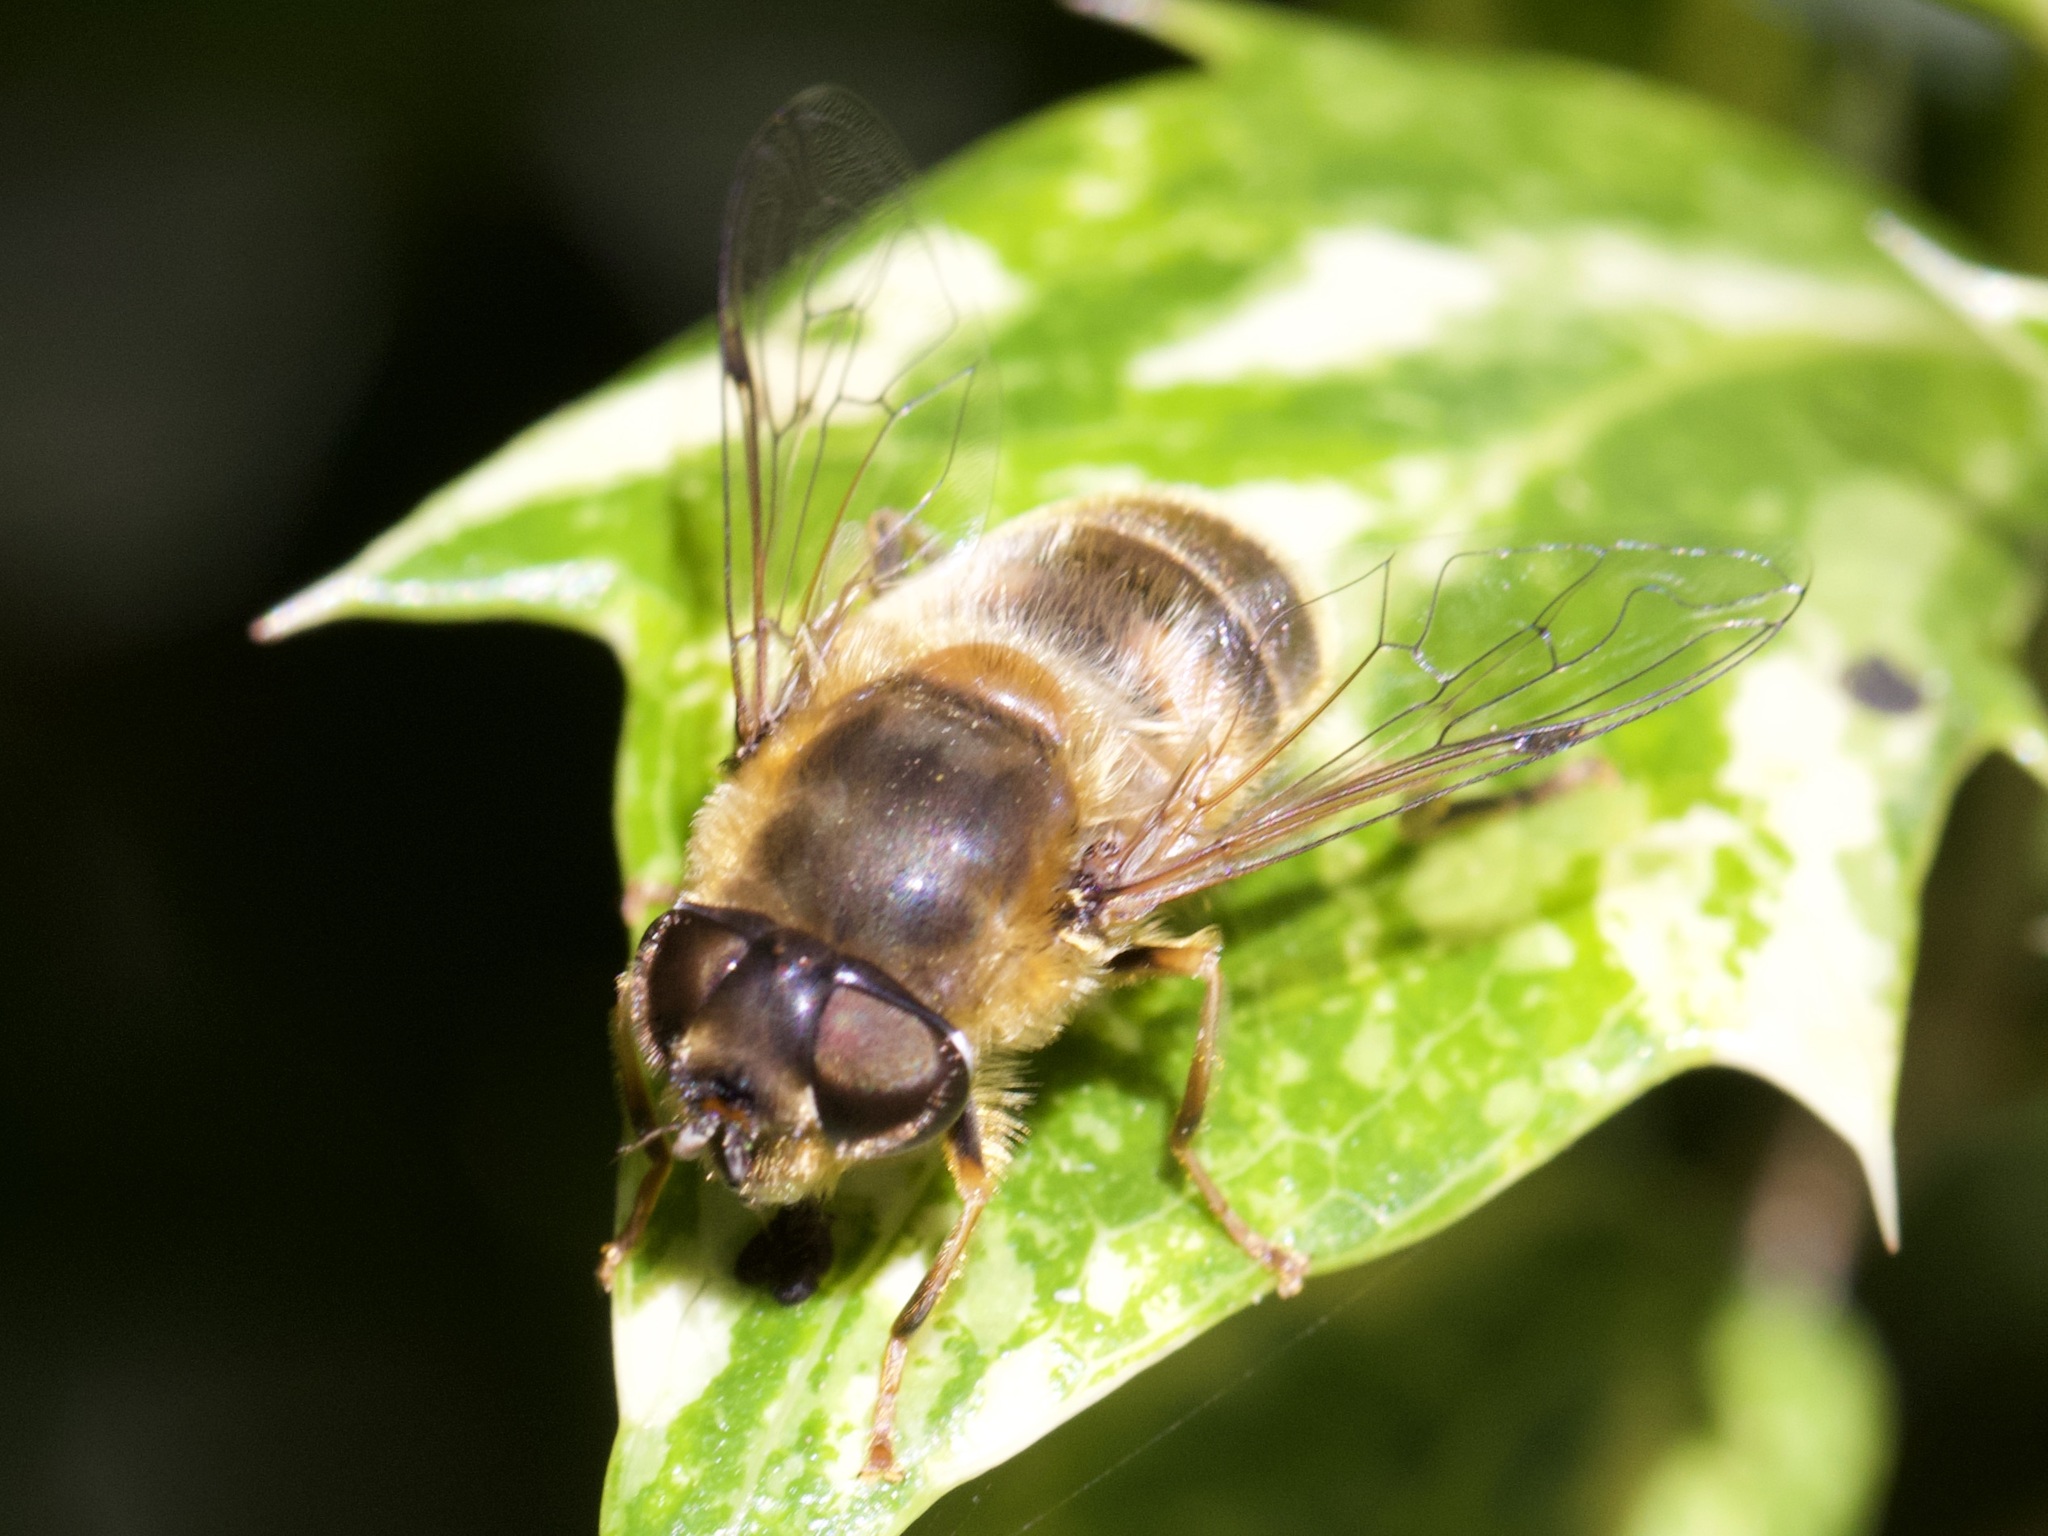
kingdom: Animalia
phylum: Arthropoda
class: Insecta
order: Diptera
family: Syrphidae
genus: Eristalis
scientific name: Eristalis pertinax
